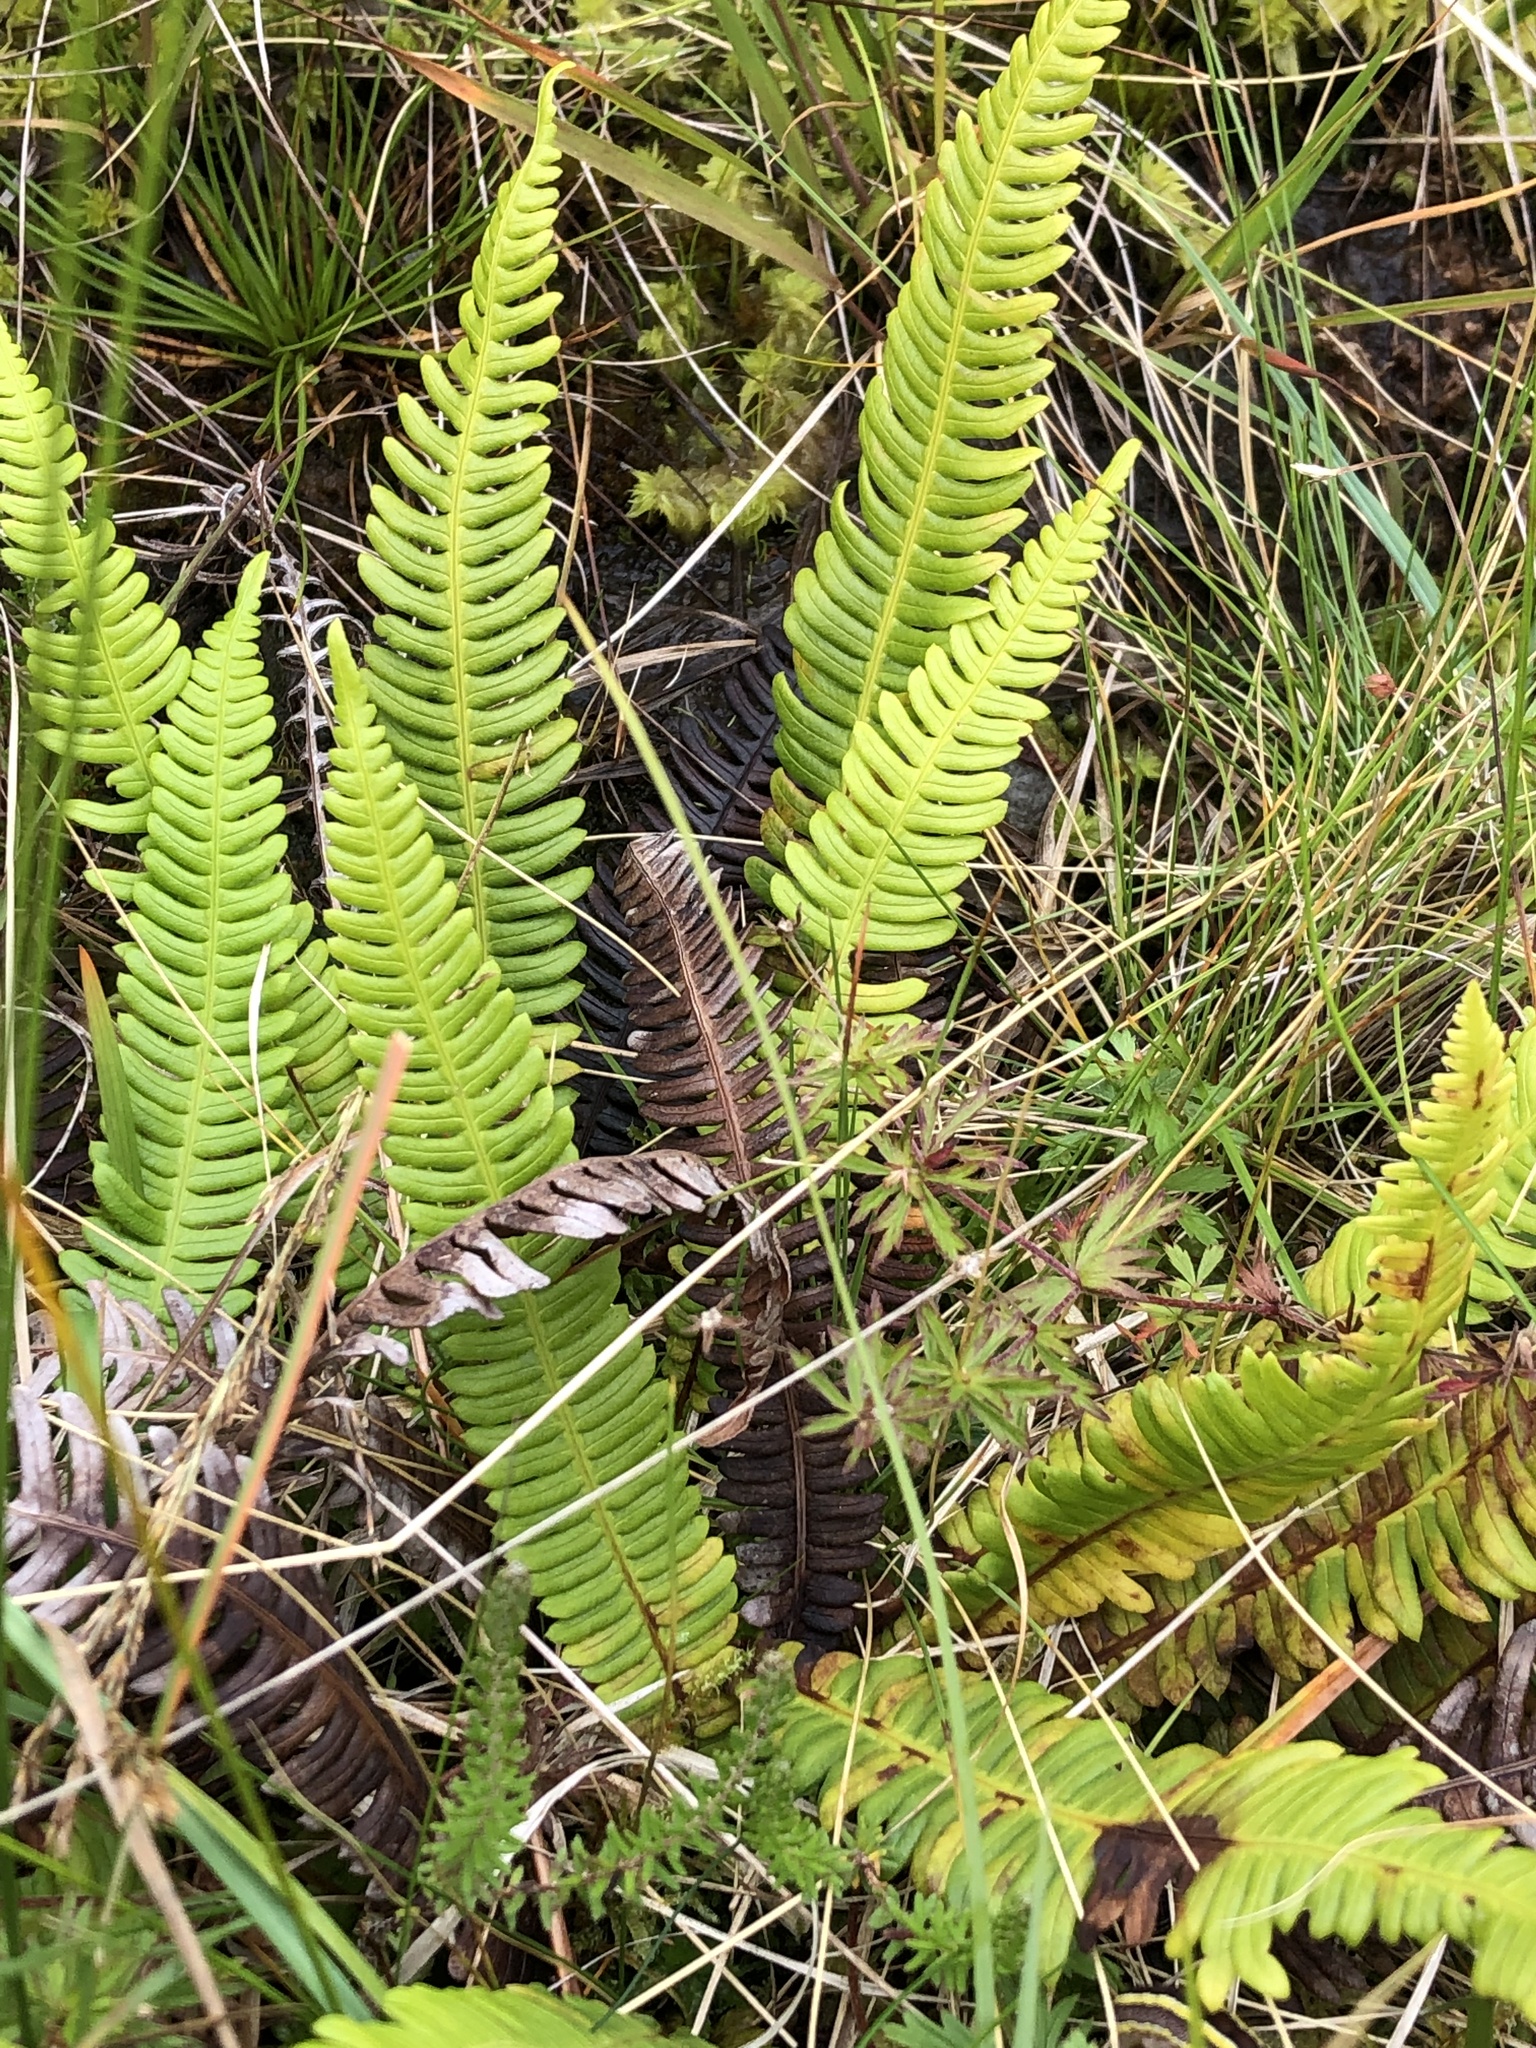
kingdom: Plantae
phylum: Tracheophyta
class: Polypodiopsida
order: Polypodiales
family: Blechnaceae
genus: Struthiopteris
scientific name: Struthiopteris spicant
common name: Deer fern
